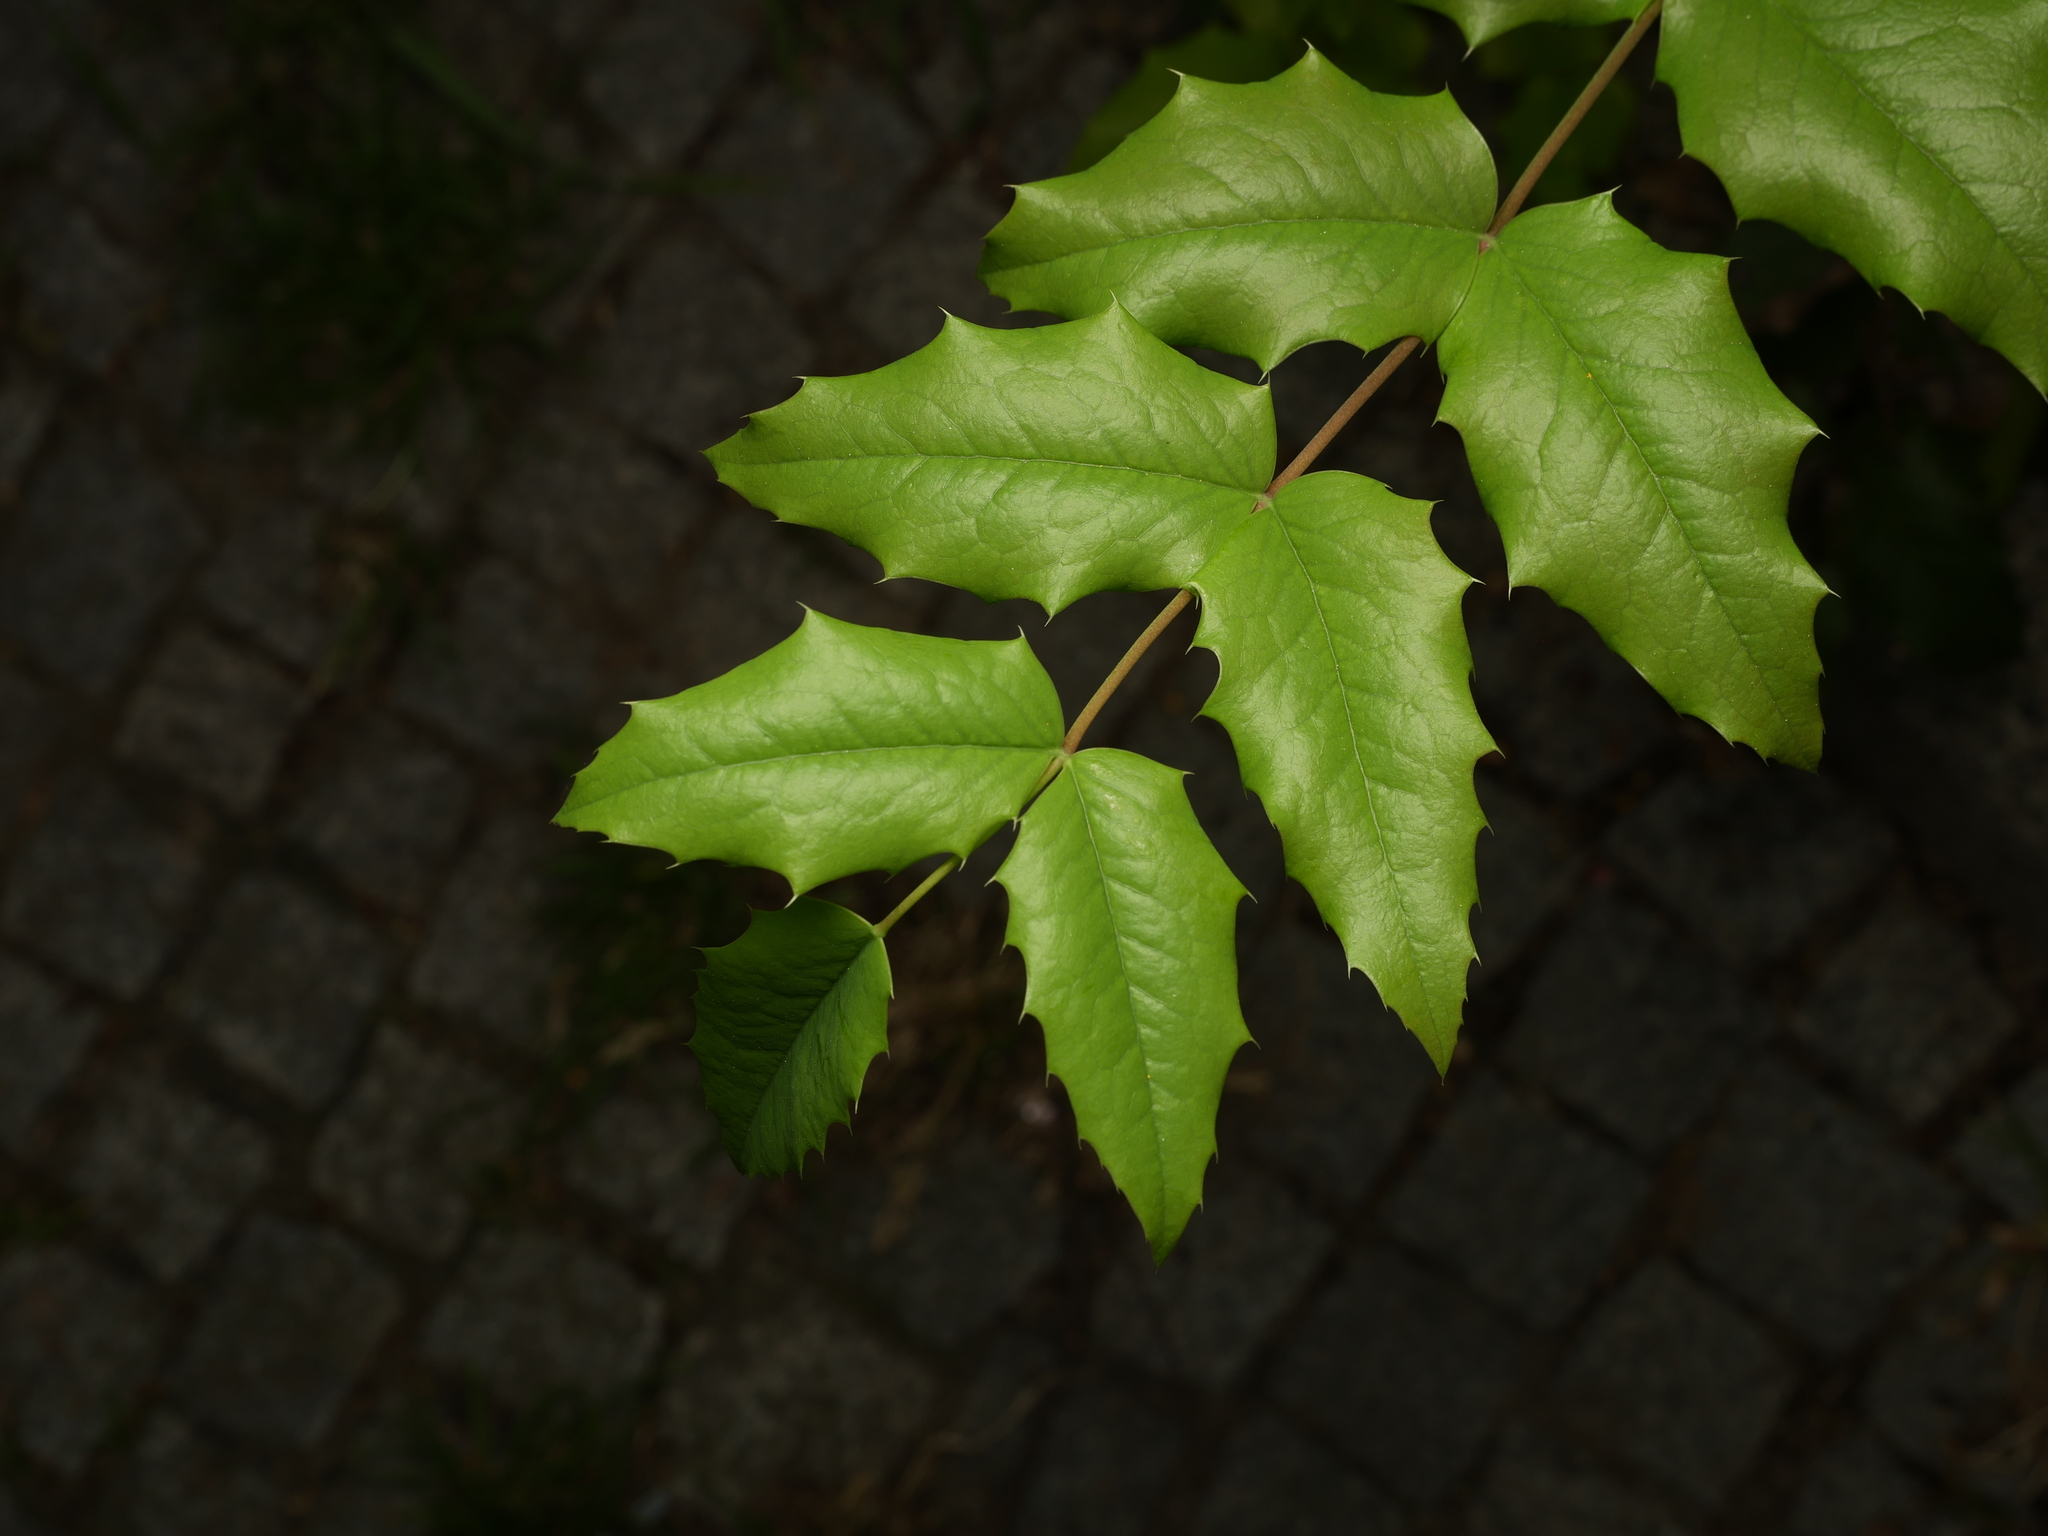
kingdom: Plantae
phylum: Tracheophyta
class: Magnoliopsida
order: Ranunculales
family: Berberidaceae
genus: Mahonia
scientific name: Mahonia aquifolium
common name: Oregon-grape
